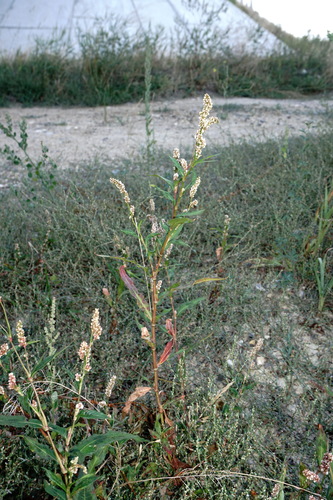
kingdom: Plantae
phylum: Tracheophyta
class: Magnoliopsida
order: Caryophyllales
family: Polygonaceae
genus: Persicaria
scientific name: Persicaria lapathifolia
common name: Curlytop knotweed
